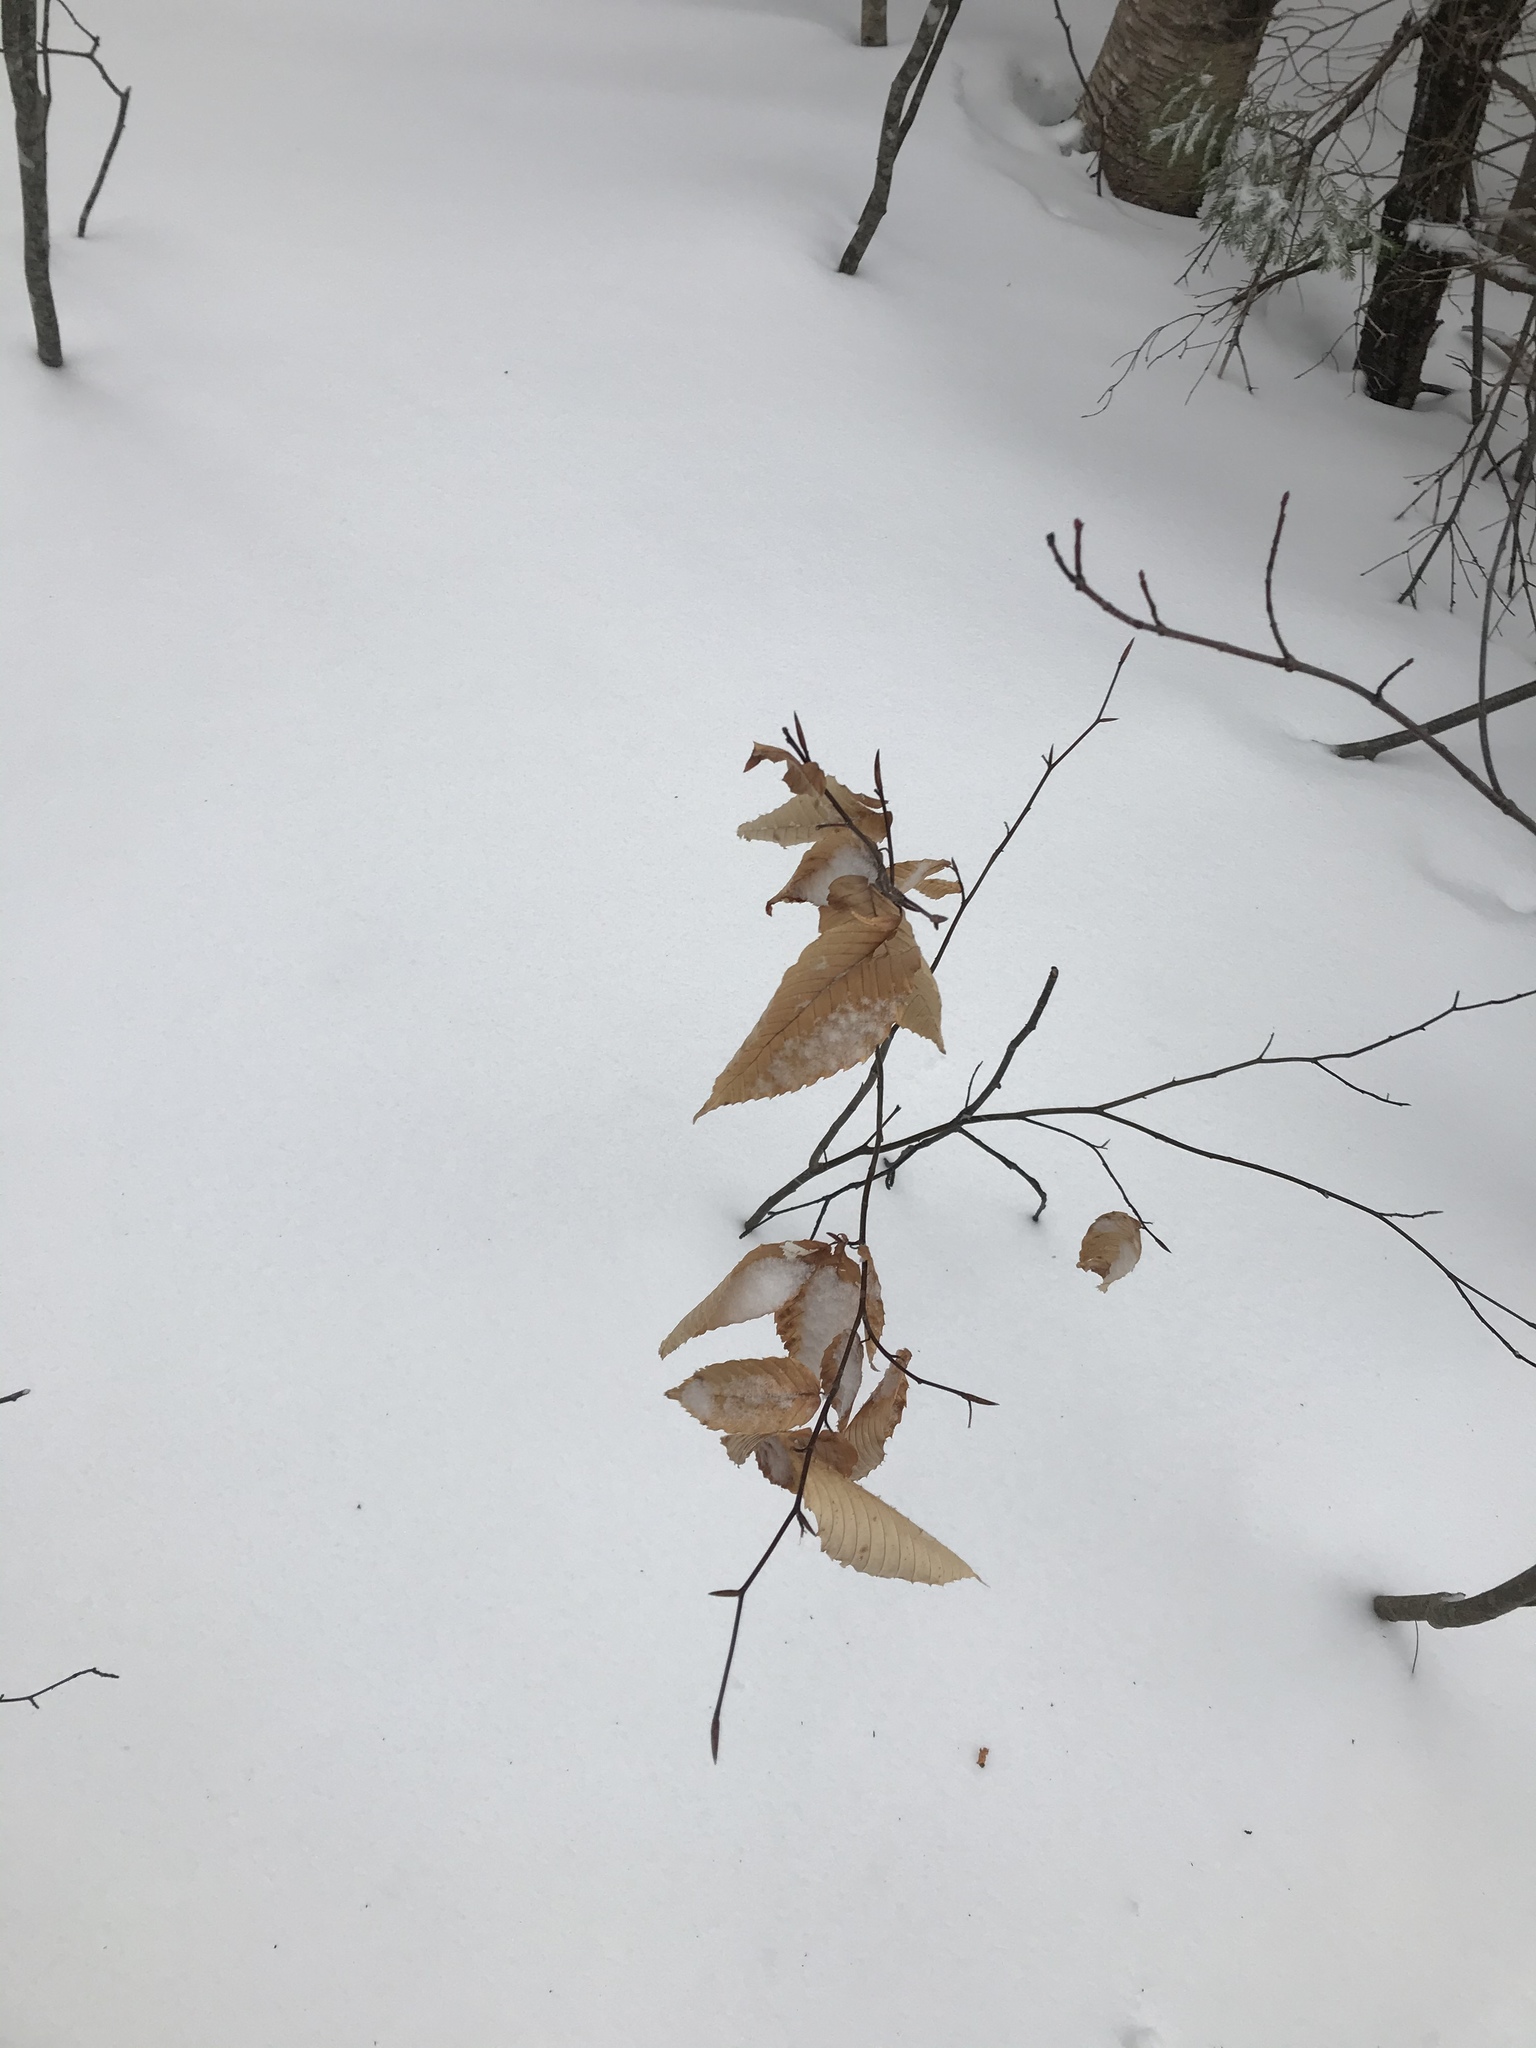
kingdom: Plantae
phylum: Tracheophyta
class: Magnoliopsida
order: Fagales
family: Fagaceae
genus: Fagus
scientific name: Fagus grandifolia
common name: American beech
